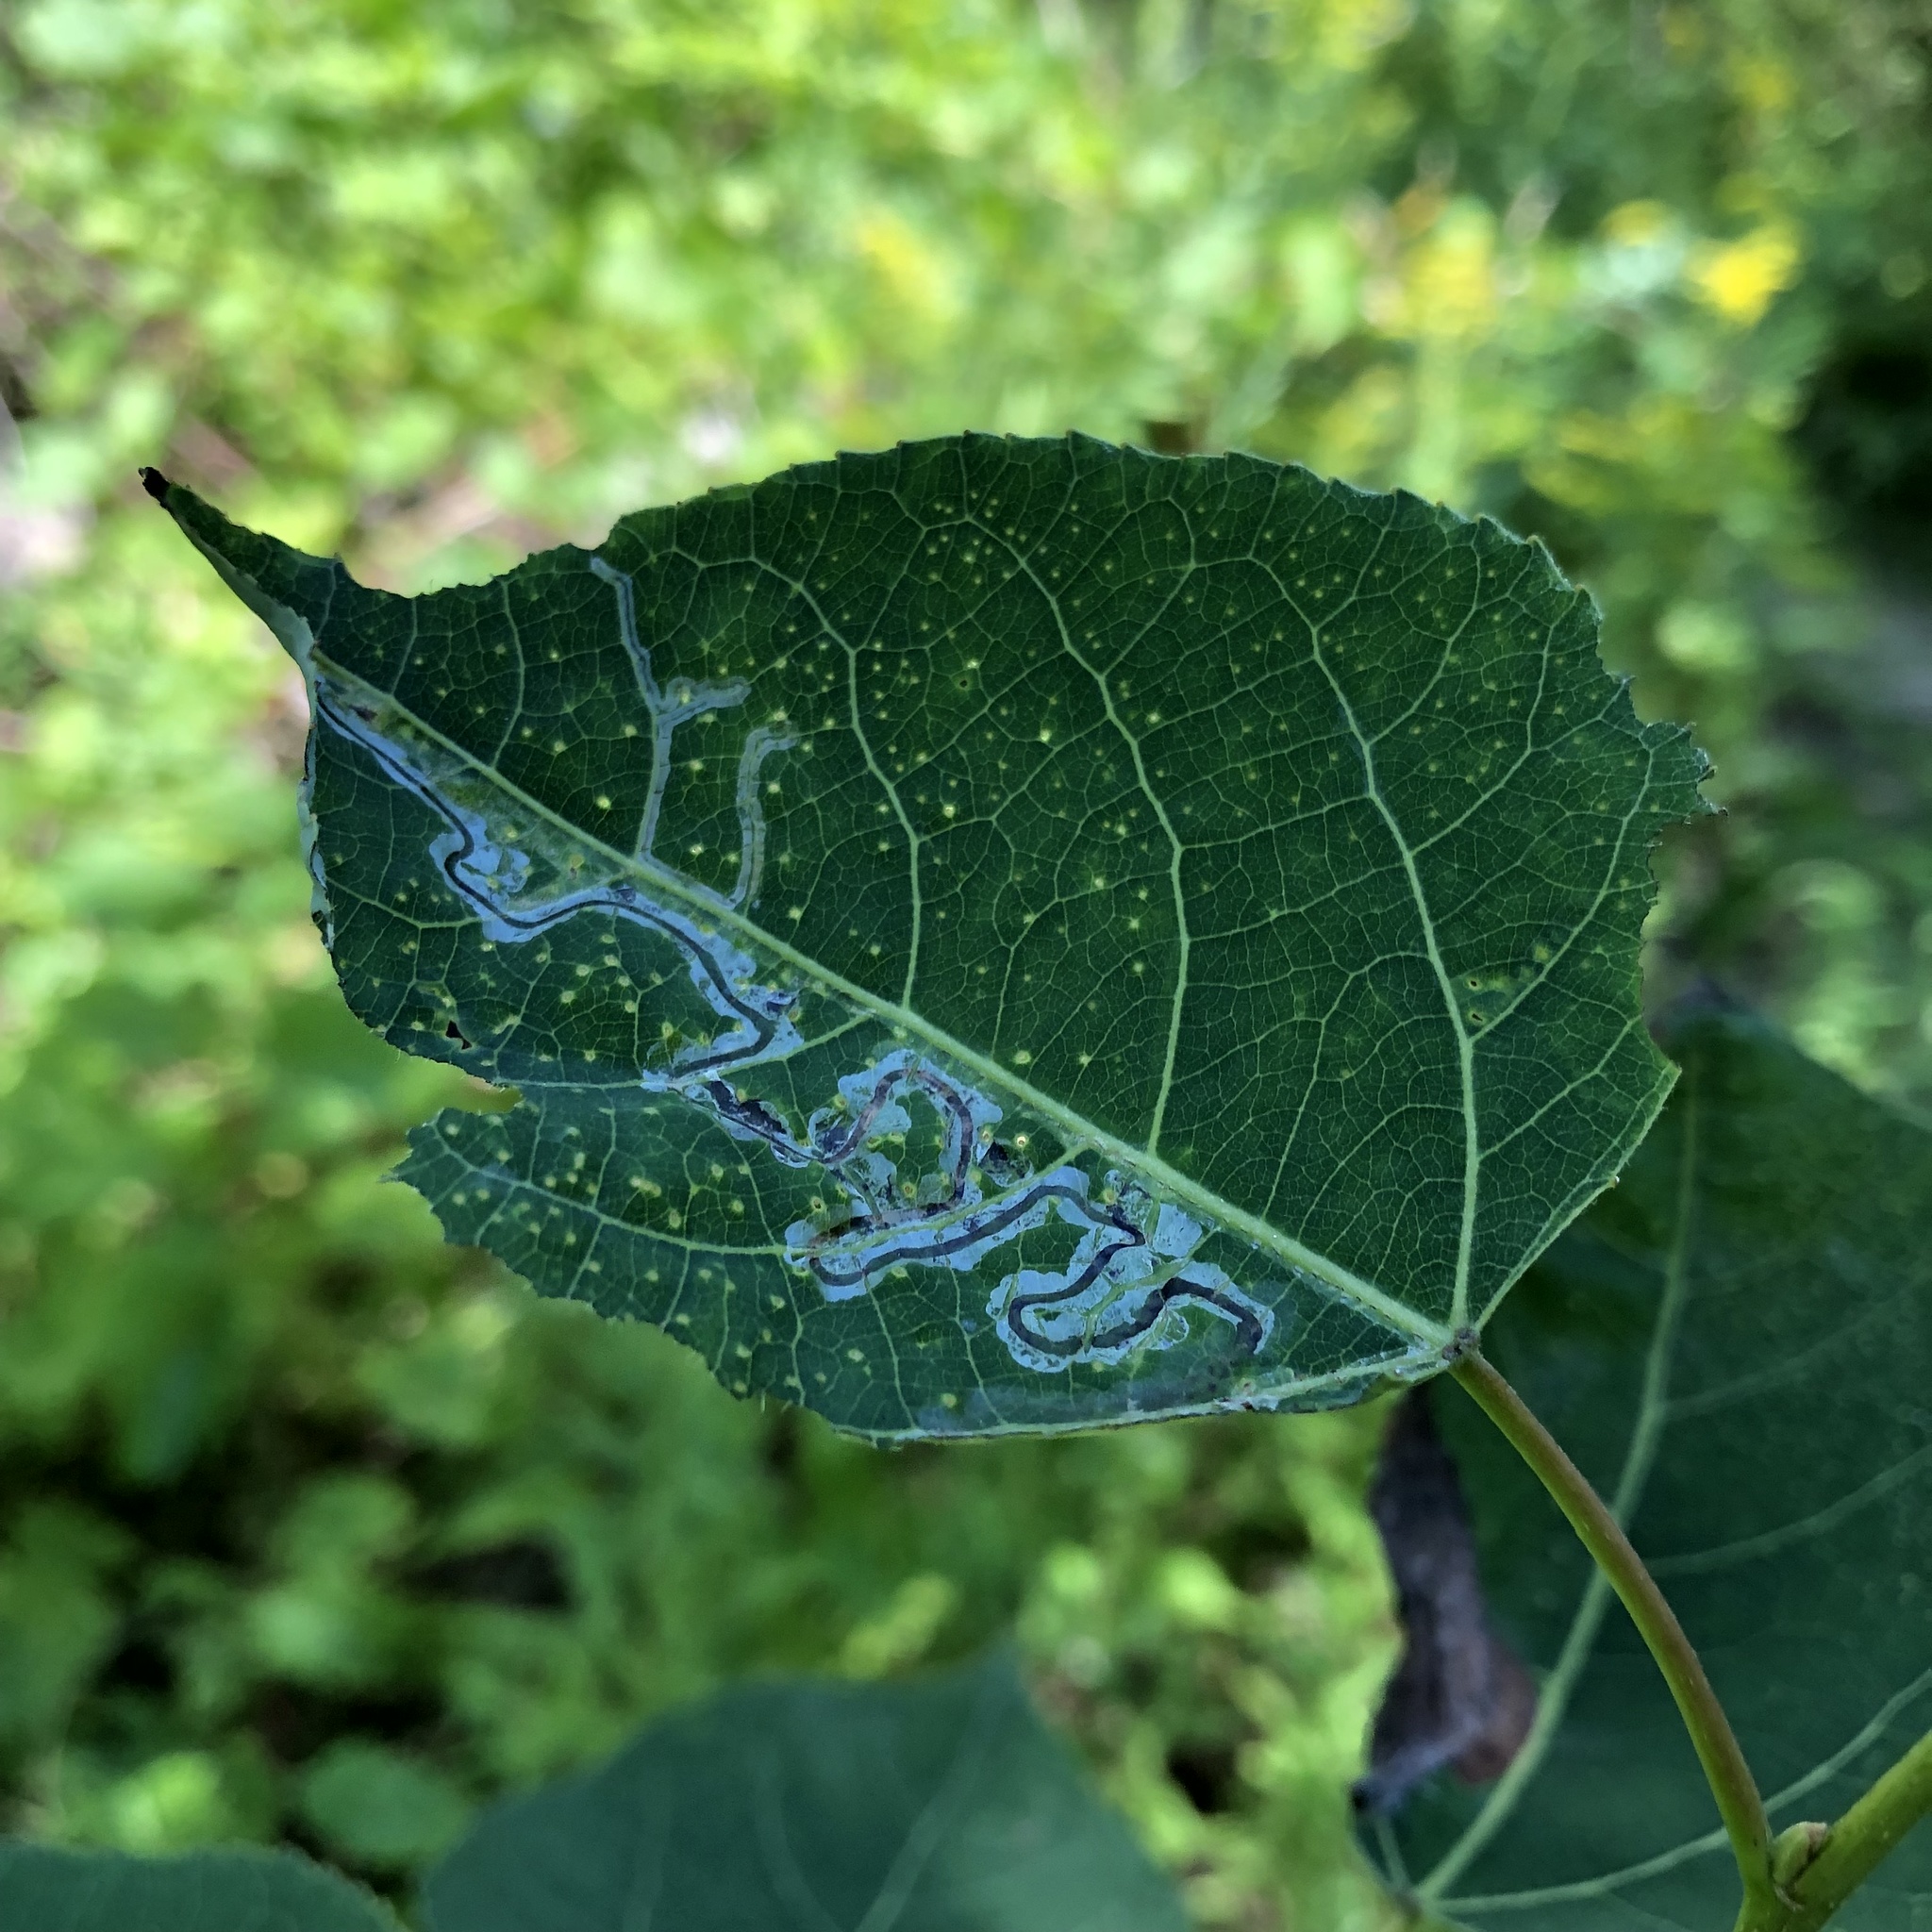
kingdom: Animalia
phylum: Arthropoda
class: Insecta
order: Lepidoptera
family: Gracillariidae
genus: Phyllocnistis
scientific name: Phyllocnistis populiella
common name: Aspen serpentine leafminer moth
